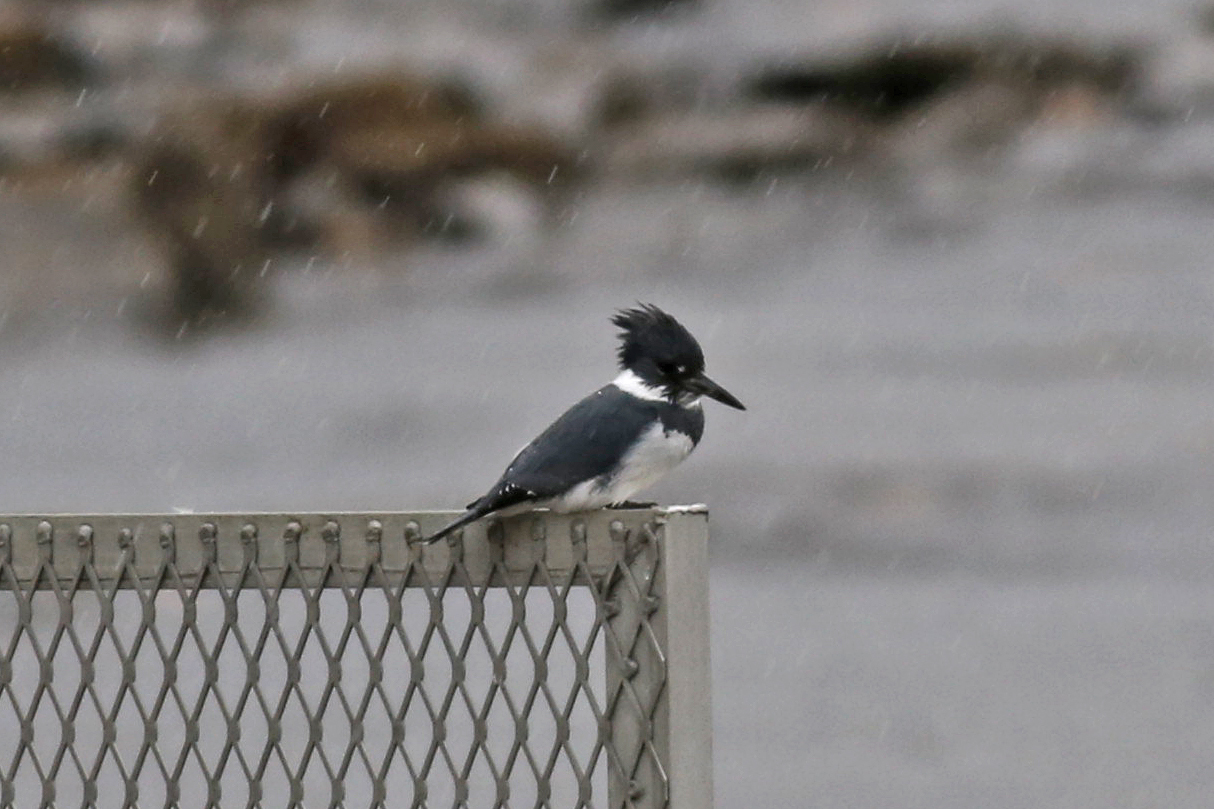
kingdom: Animalia
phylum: Chordata
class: Aves
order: Coraciiformes
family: Alcedinidae
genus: Megaceryle
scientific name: Megaceryle alcyon
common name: Belted kingfisher
